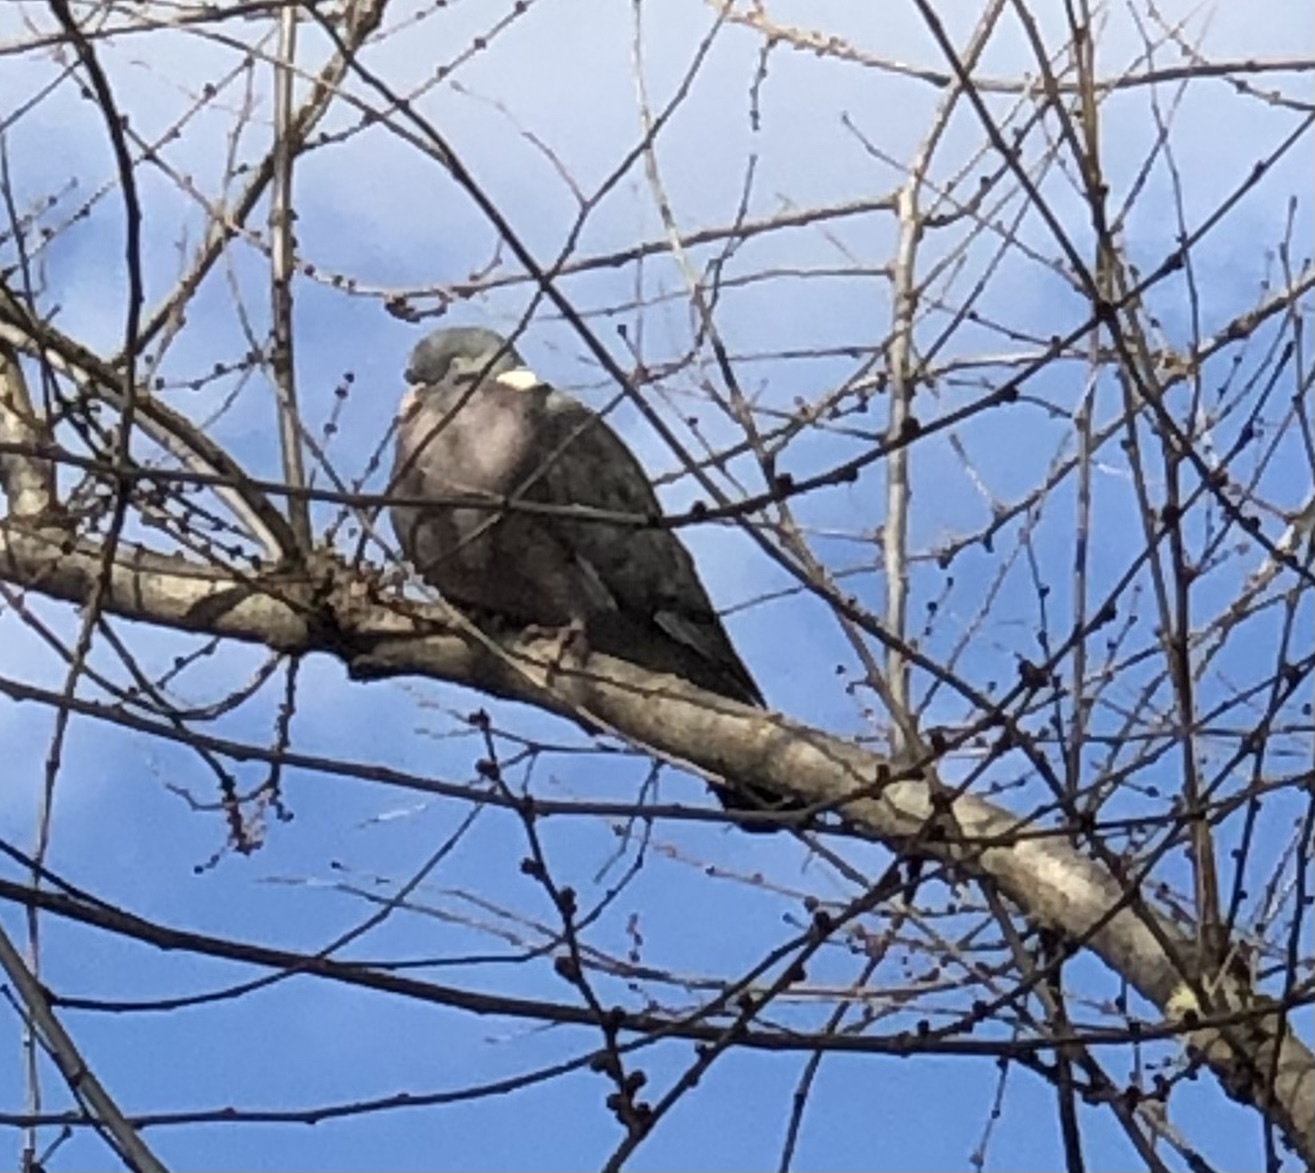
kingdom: Animalia
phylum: Chordata
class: Aves
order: Columbiformes
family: Columbidae
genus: Columba
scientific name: Columba palumbus
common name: Common wood pigeon
